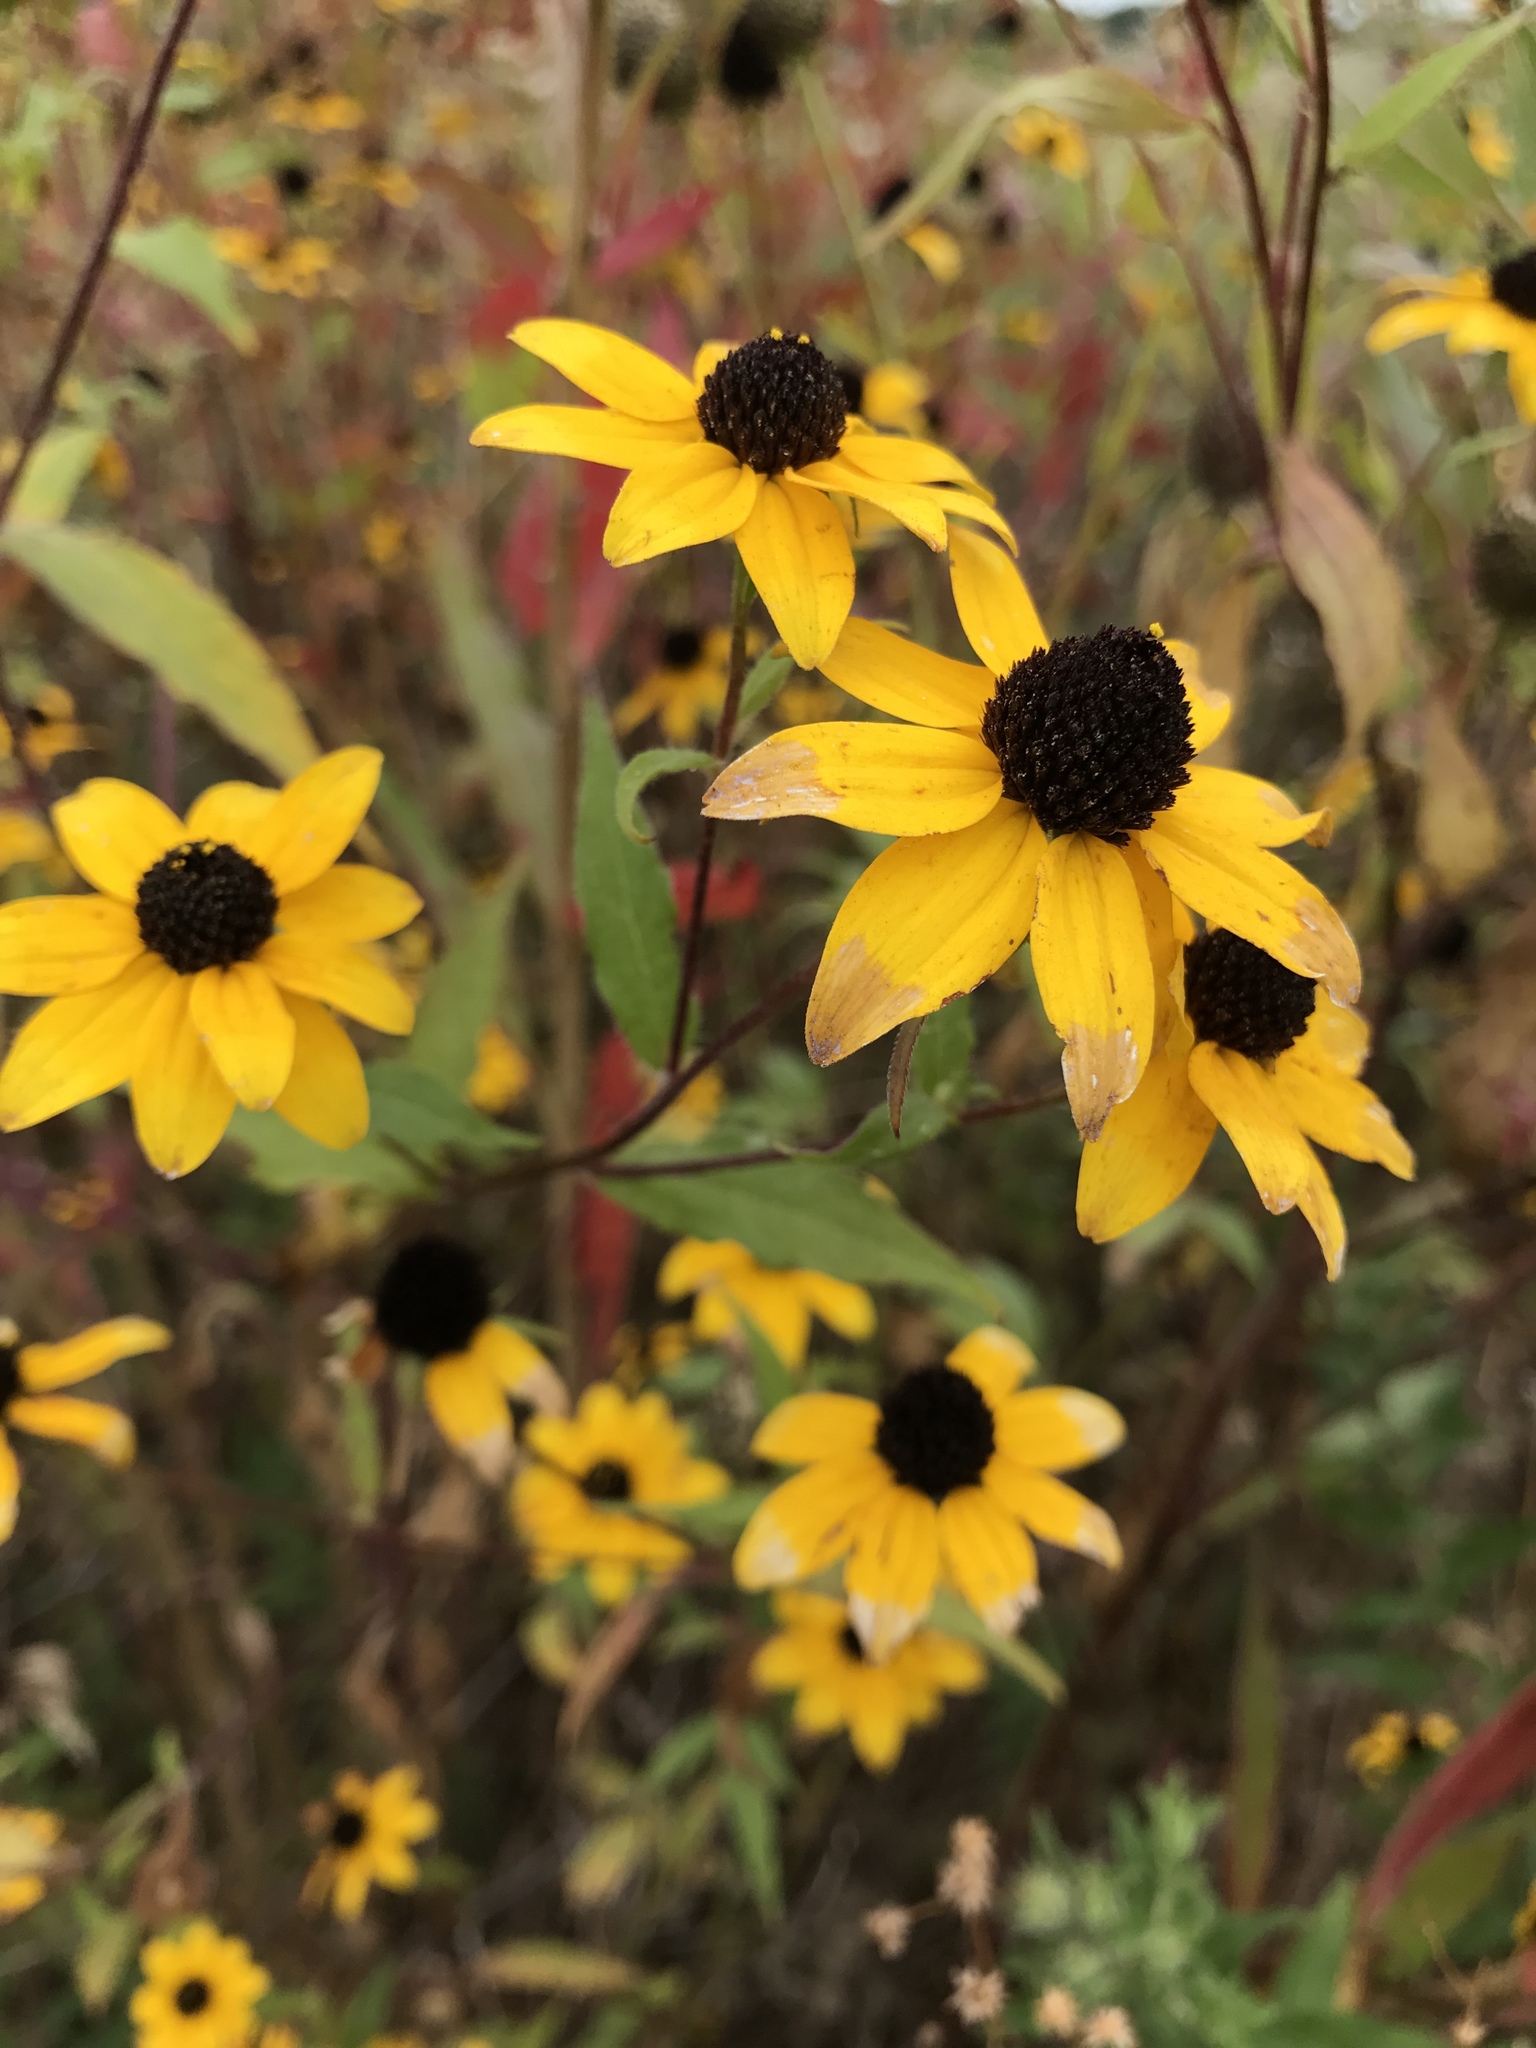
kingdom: Plantae
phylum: Tracheophyta
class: Magnoliopsida
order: Asterales
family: Asteraceae
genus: Rudbeckia
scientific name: Rudbeckia triloba
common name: Thin-leaved coneflower
